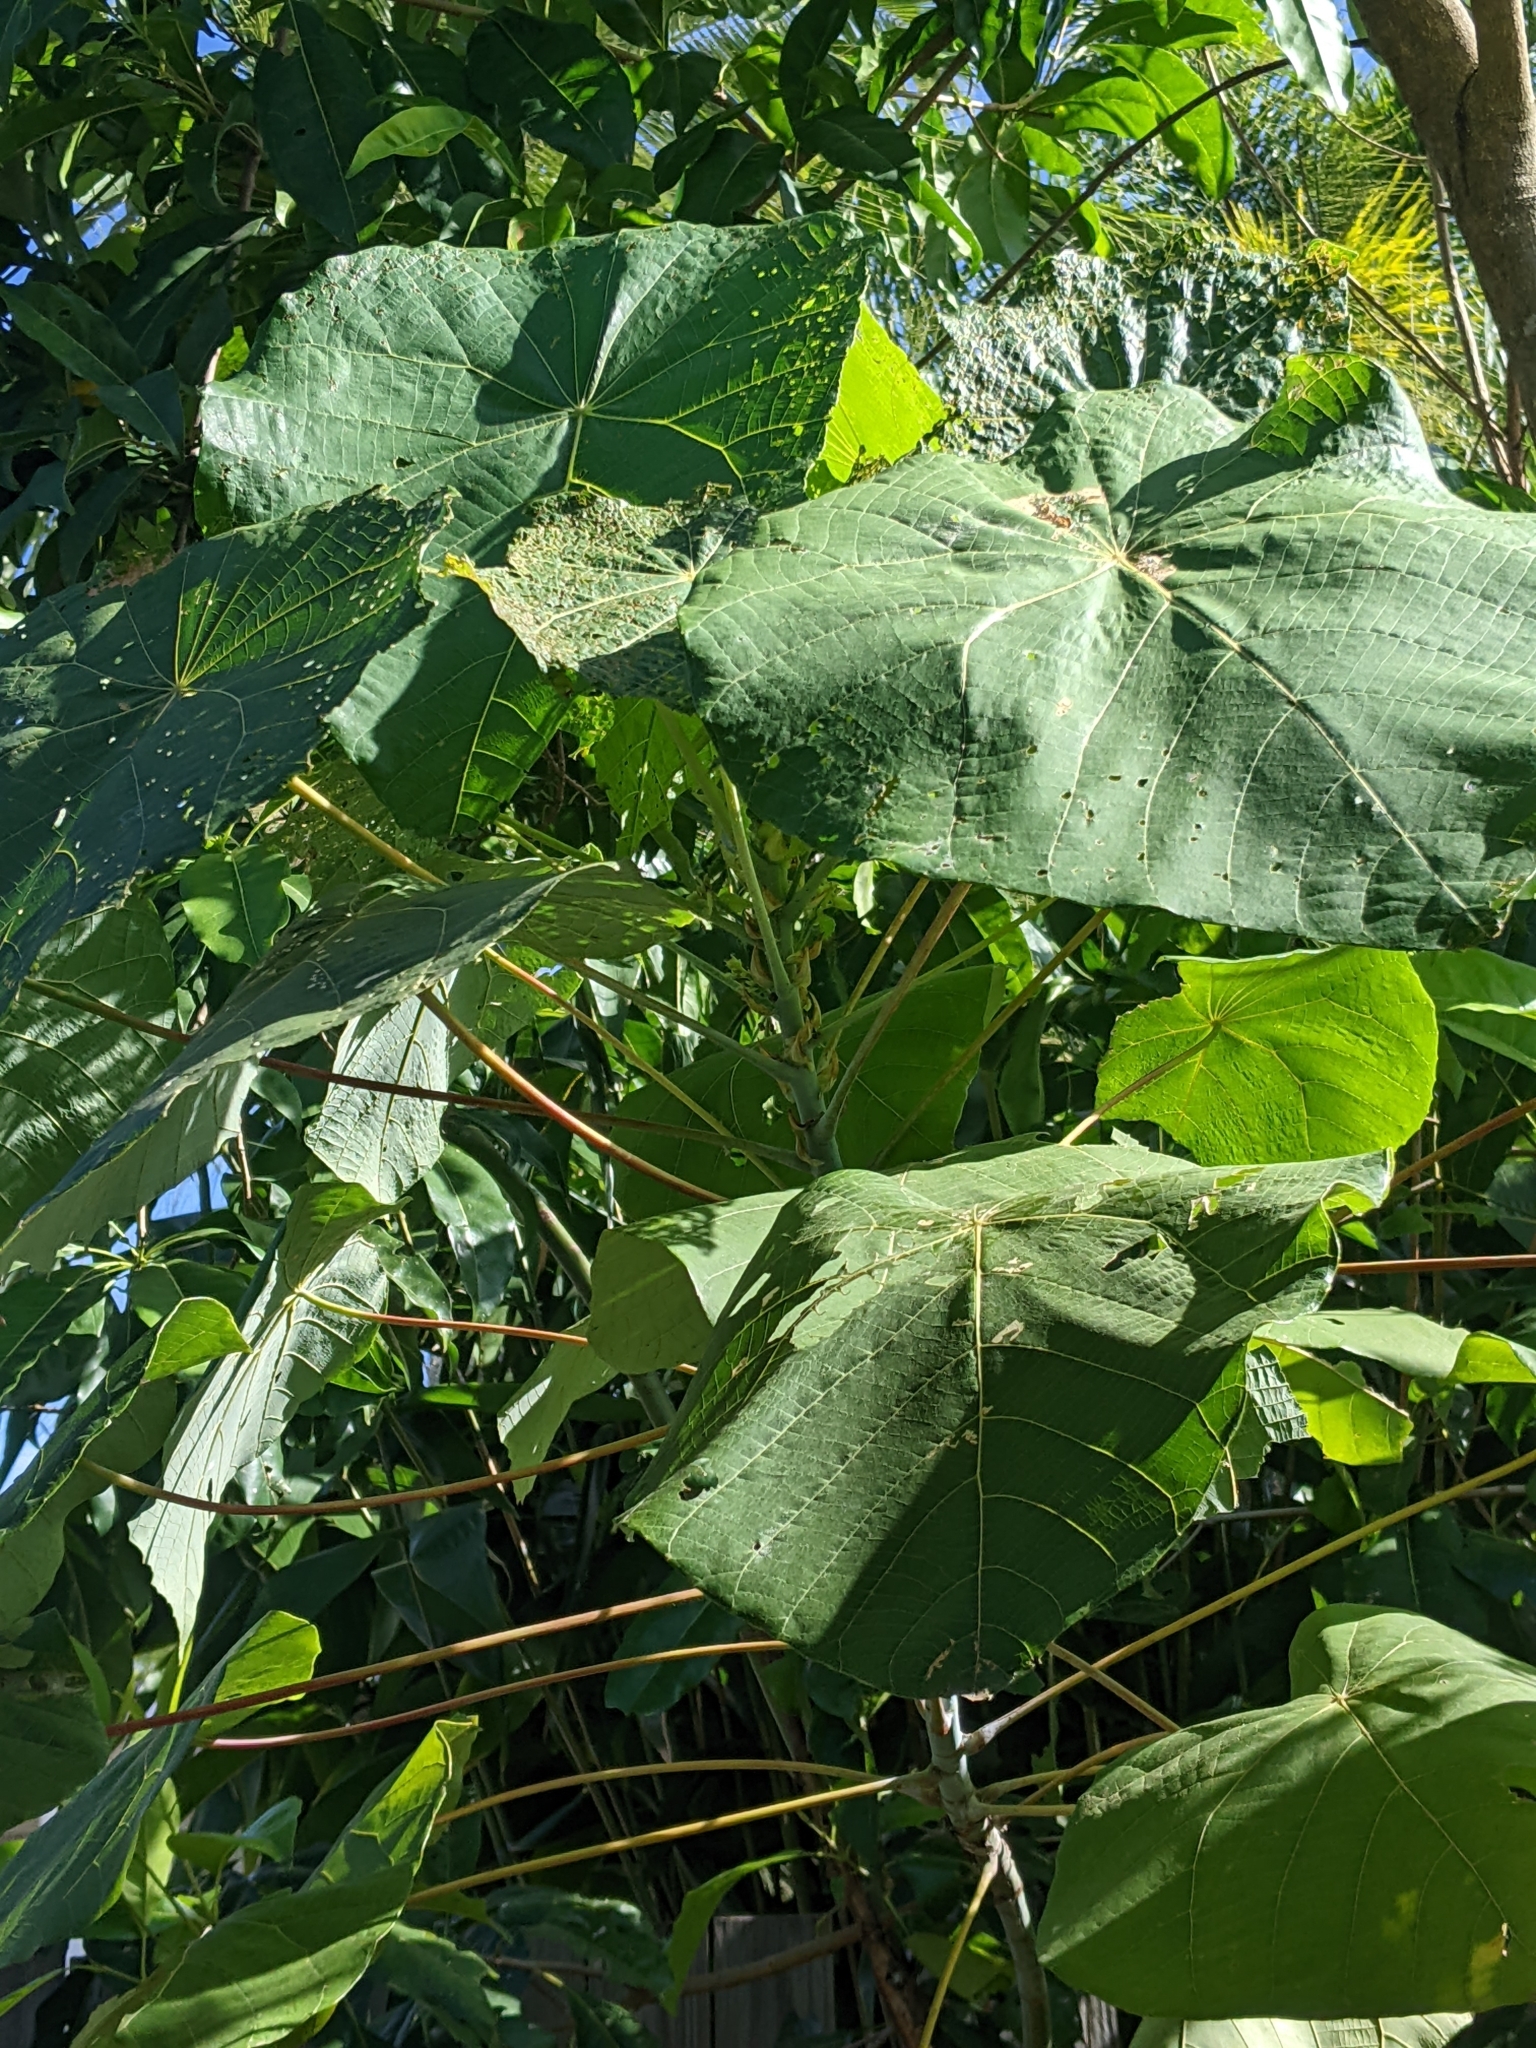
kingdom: Plantae
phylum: Tracheophyta
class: Magnoliopsida
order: Malpighiales
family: Euphorbiaceae
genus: Macaranga
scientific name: Macaranga tanarius
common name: Parasol leaf tree
